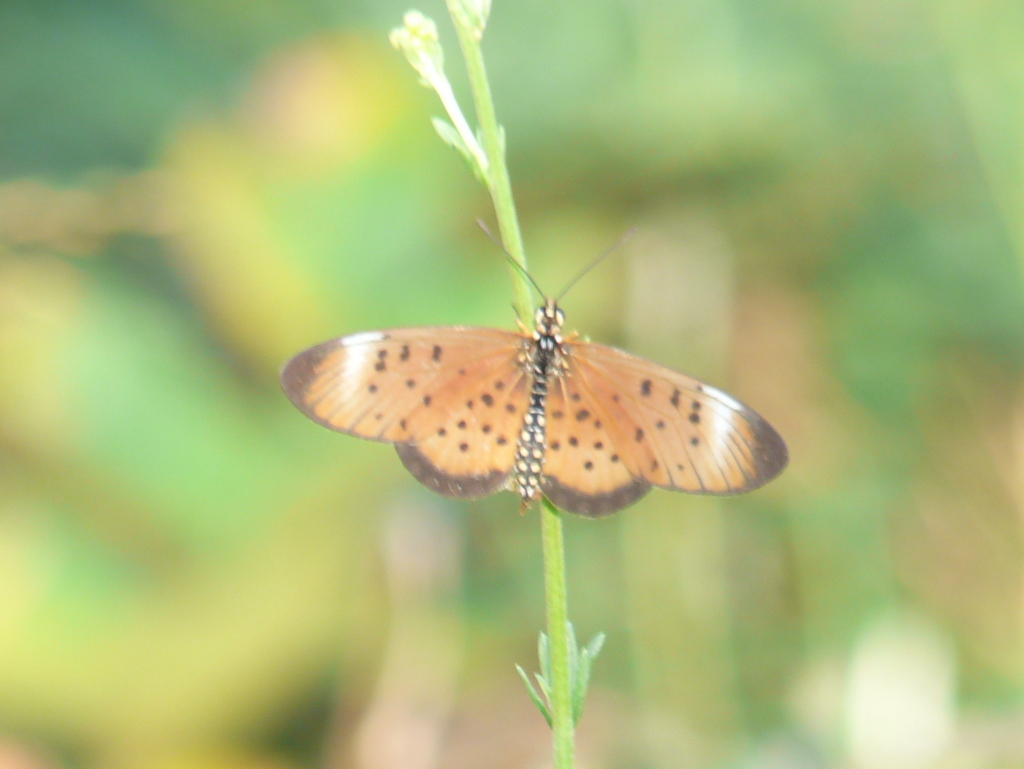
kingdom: Animalia
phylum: Arthropoda
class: Insecta
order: Lepidoptera
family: Nymphalidae
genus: Stephenia
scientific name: Stephenia
